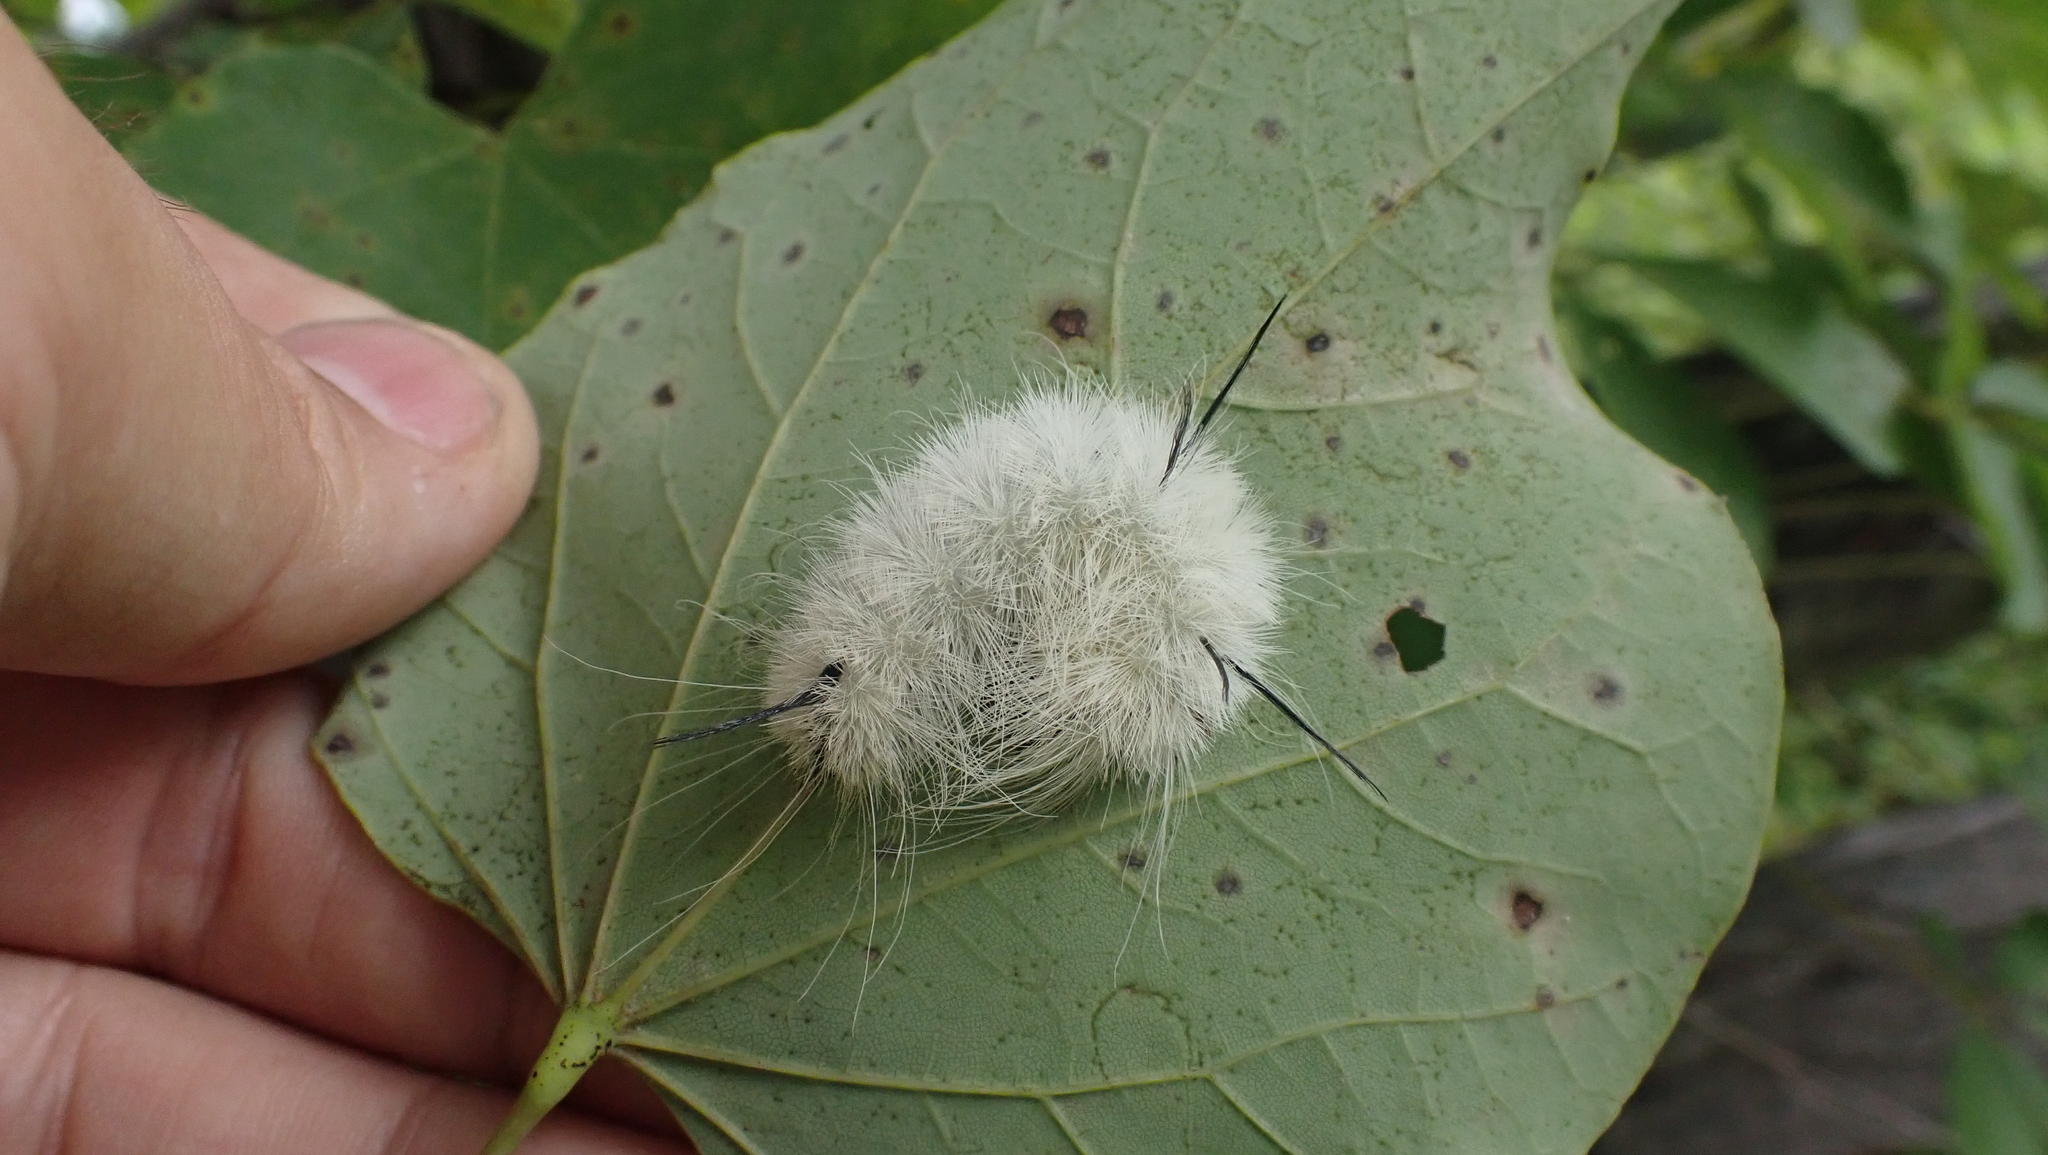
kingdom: Animalia
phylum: Arthropoda
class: Insecta
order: Lepidoptera
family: Noctuidae
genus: Acronicta
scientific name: Acronicta americana
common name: American dagger
